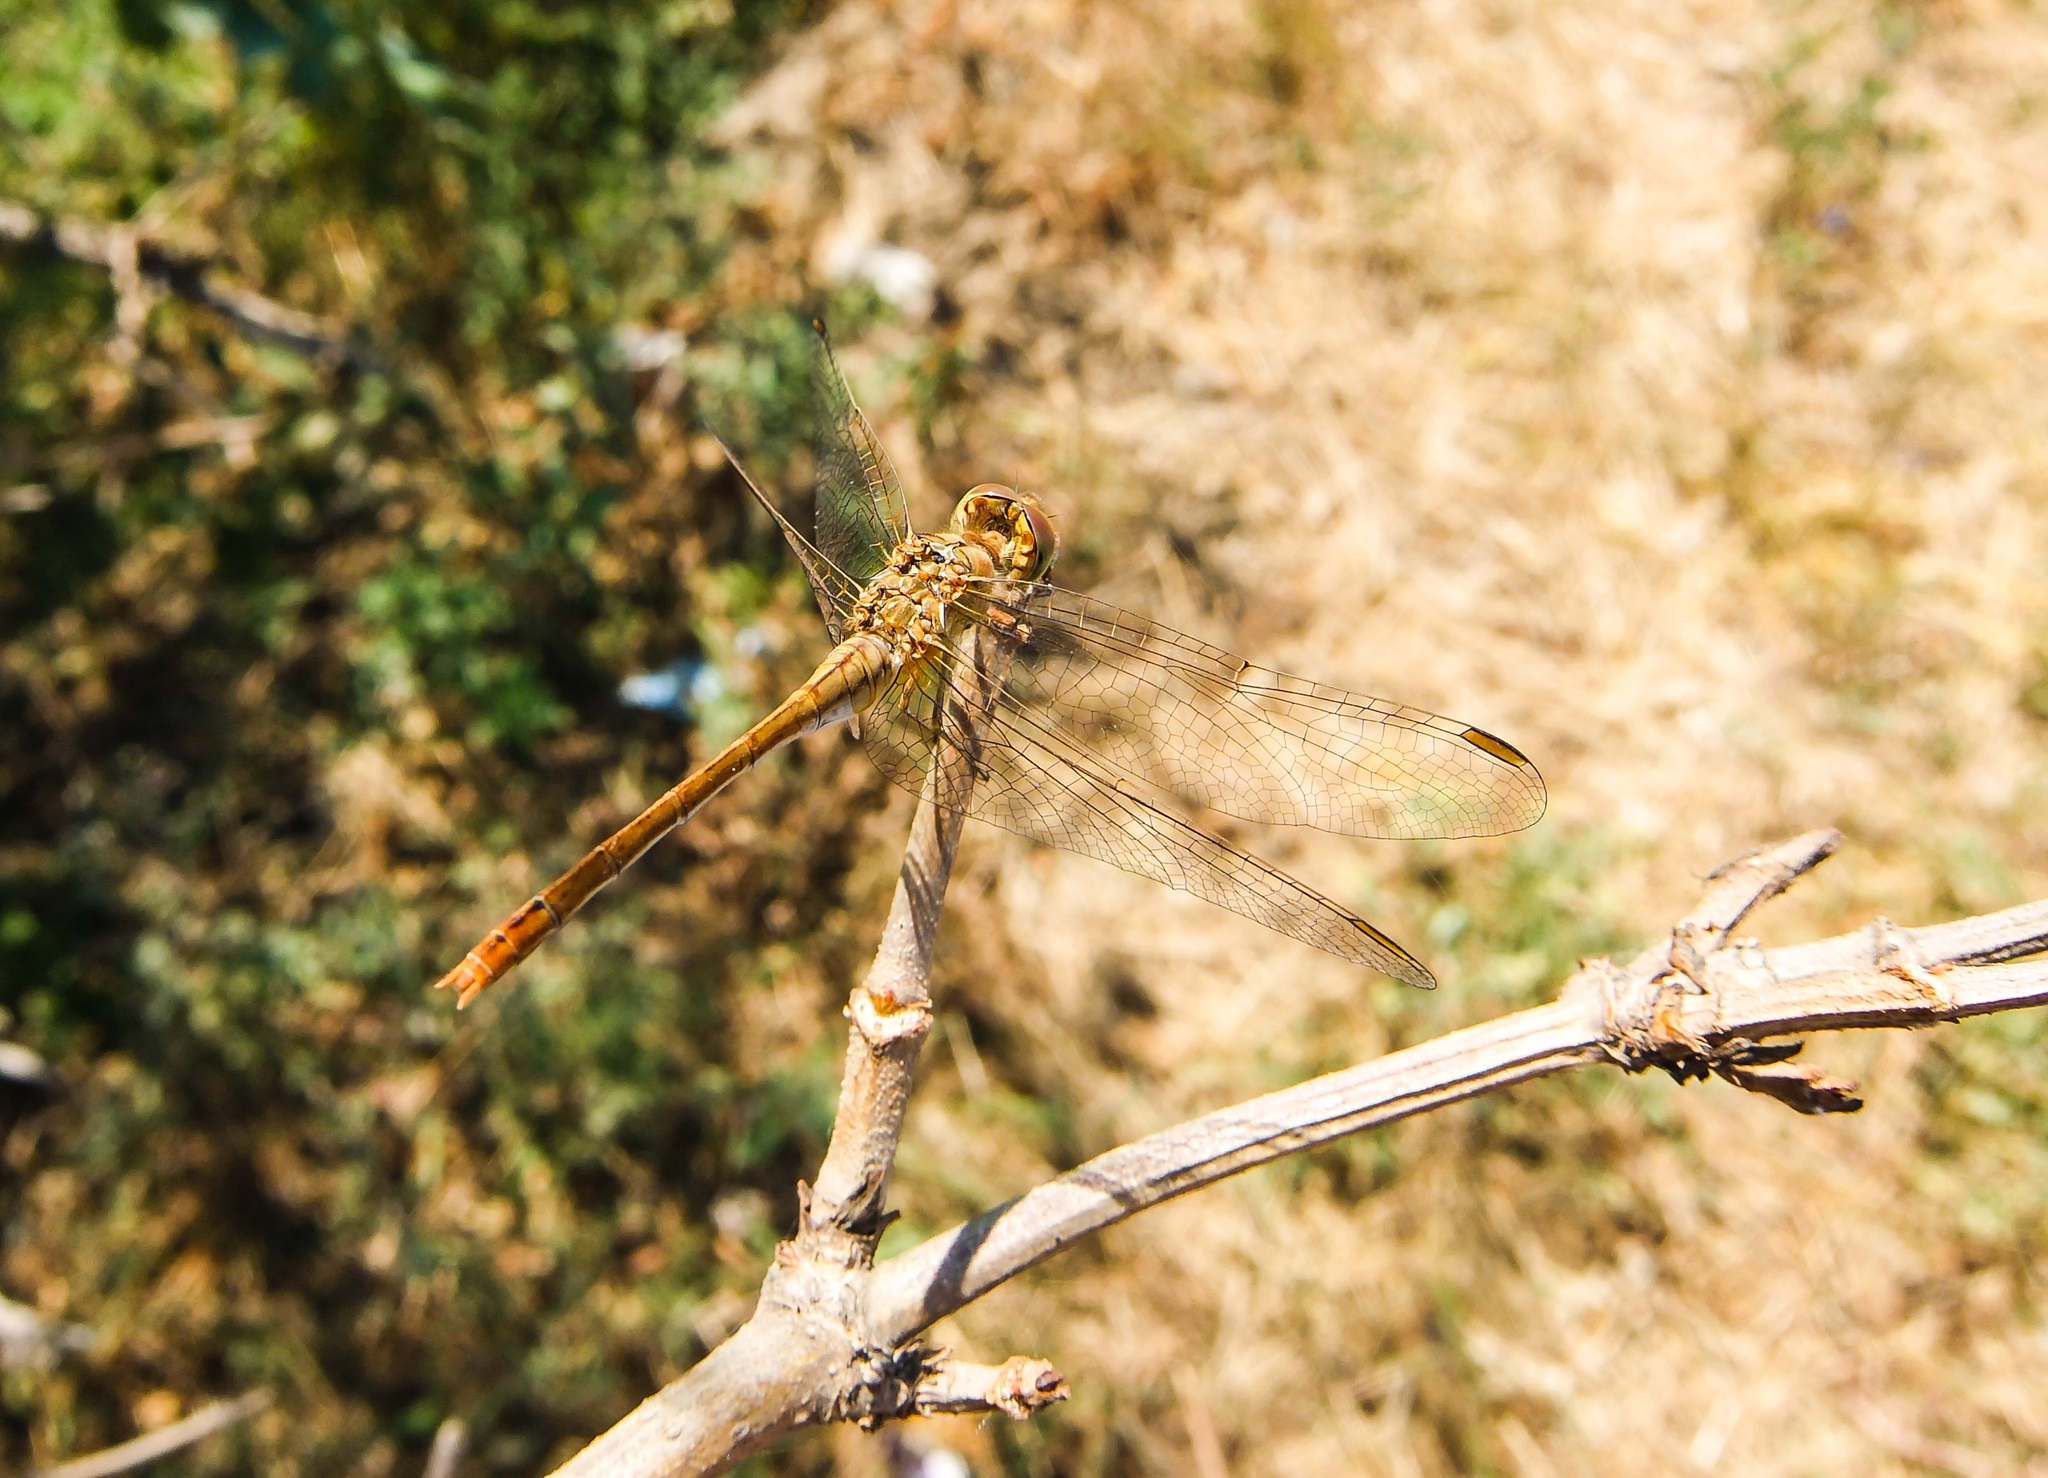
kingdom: Animalia
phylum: Arthropoda
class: Insecta
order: Odonata
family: Libellulidae
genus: Sympetrum
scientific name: Sympetrum meridionale
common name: Southern darter
